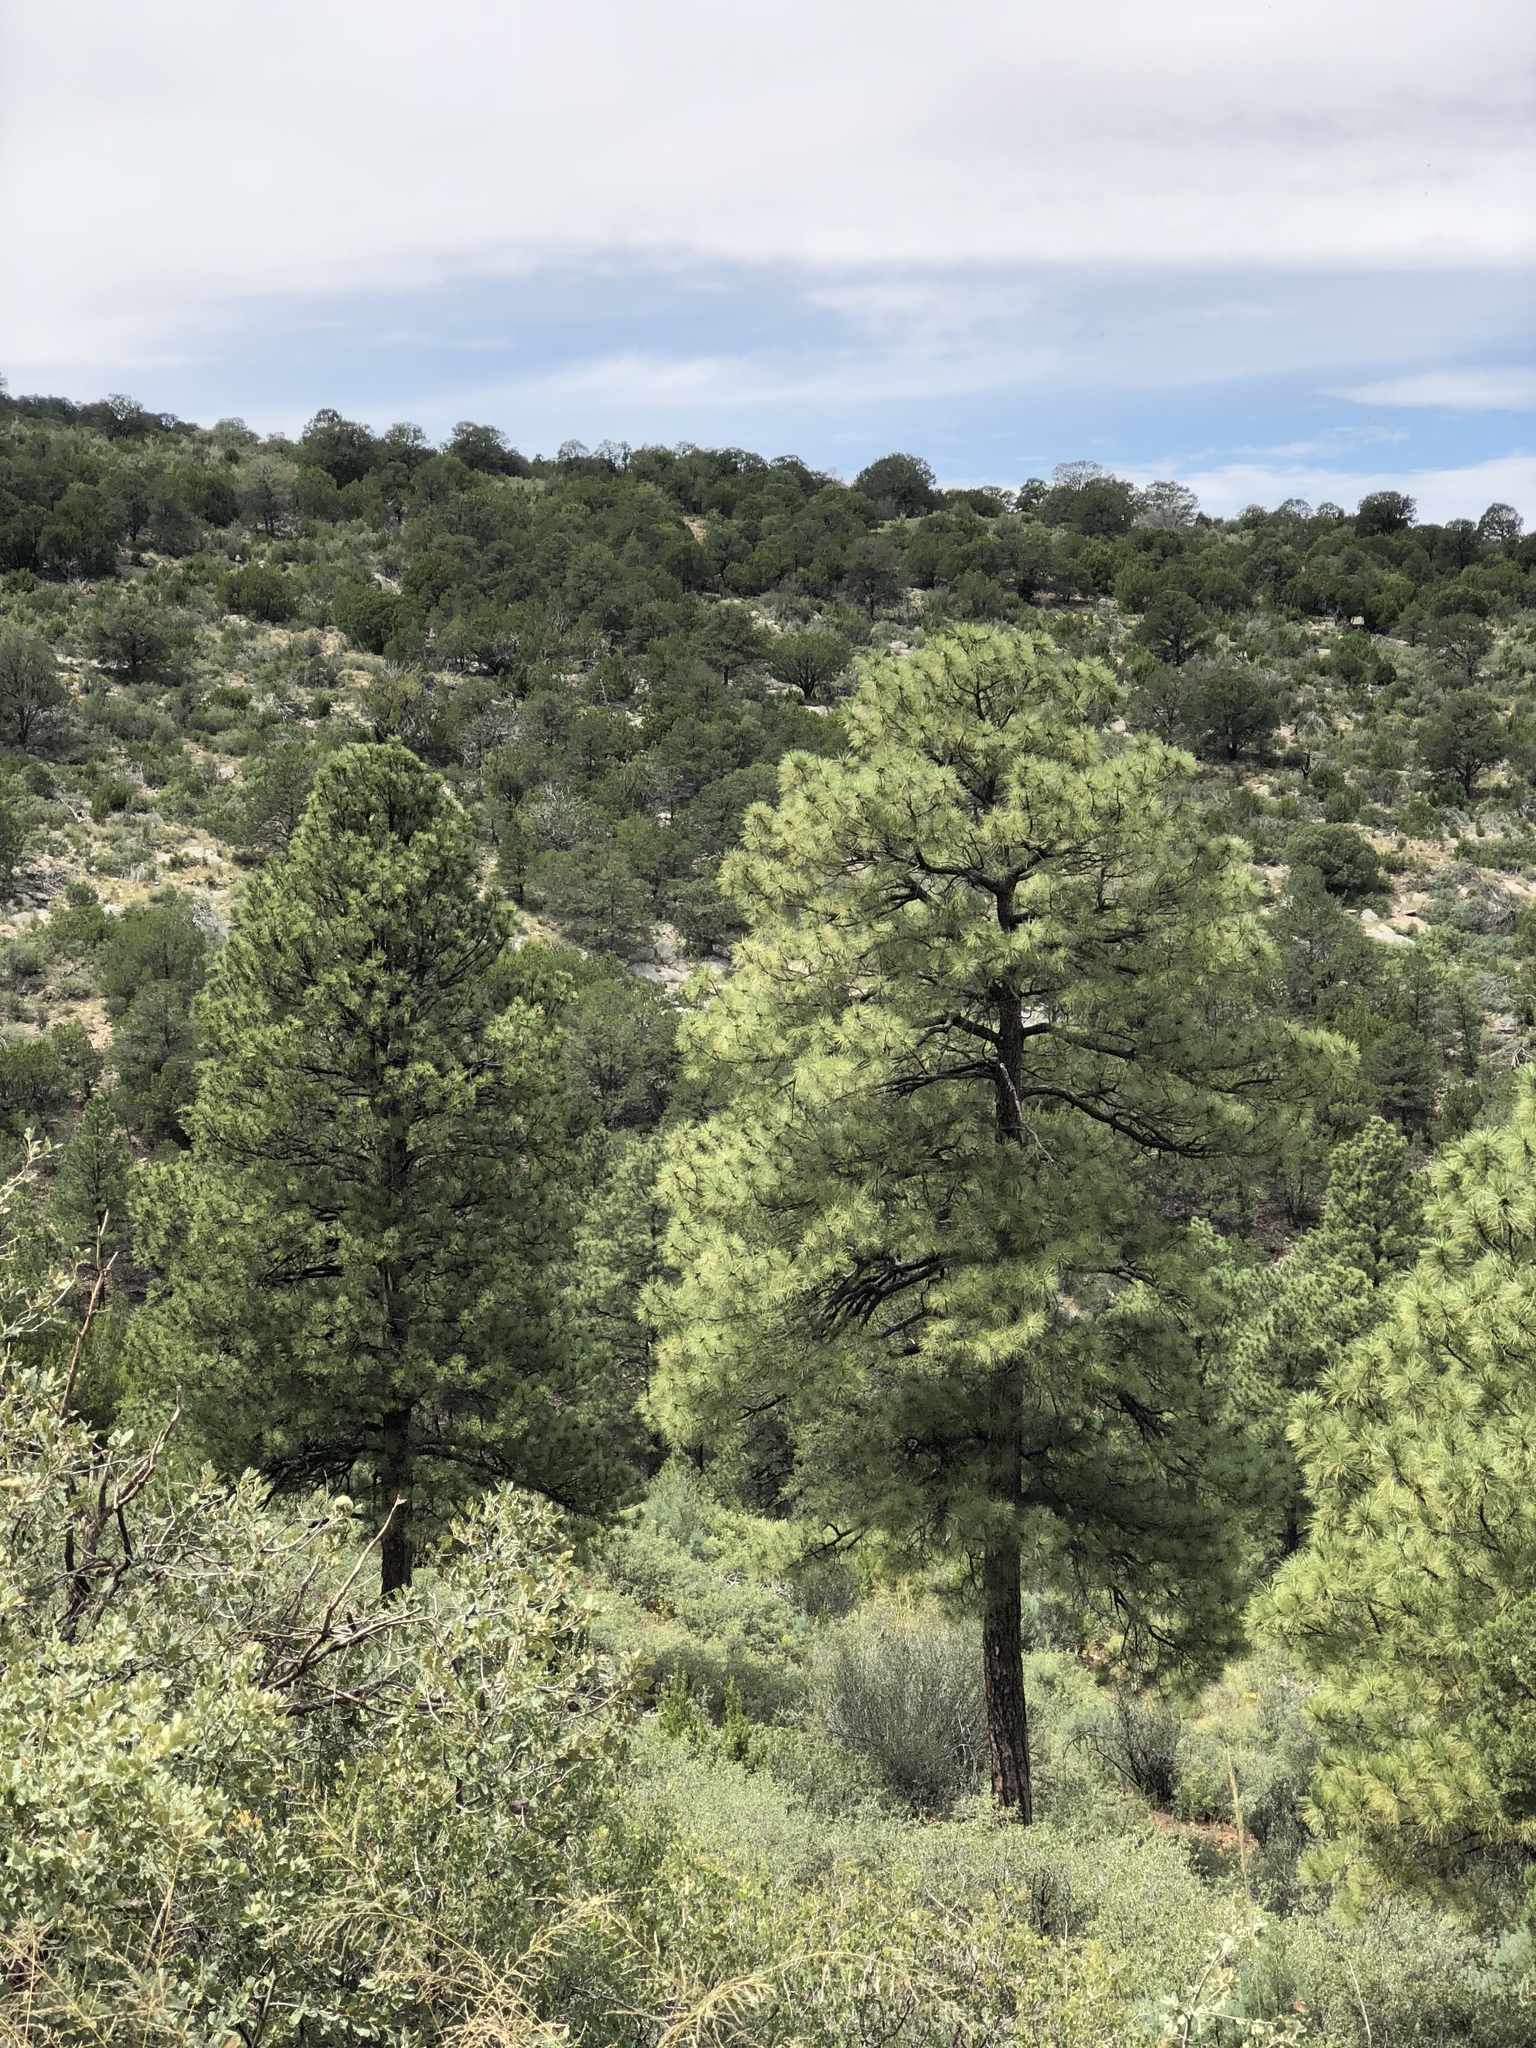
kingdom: Plantae
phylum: Tracheophyta
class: Pinopsida
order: Pinales
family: Pinaceae
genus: Pinus
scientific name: Pinus ponderosa
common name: Western yellow-pine
